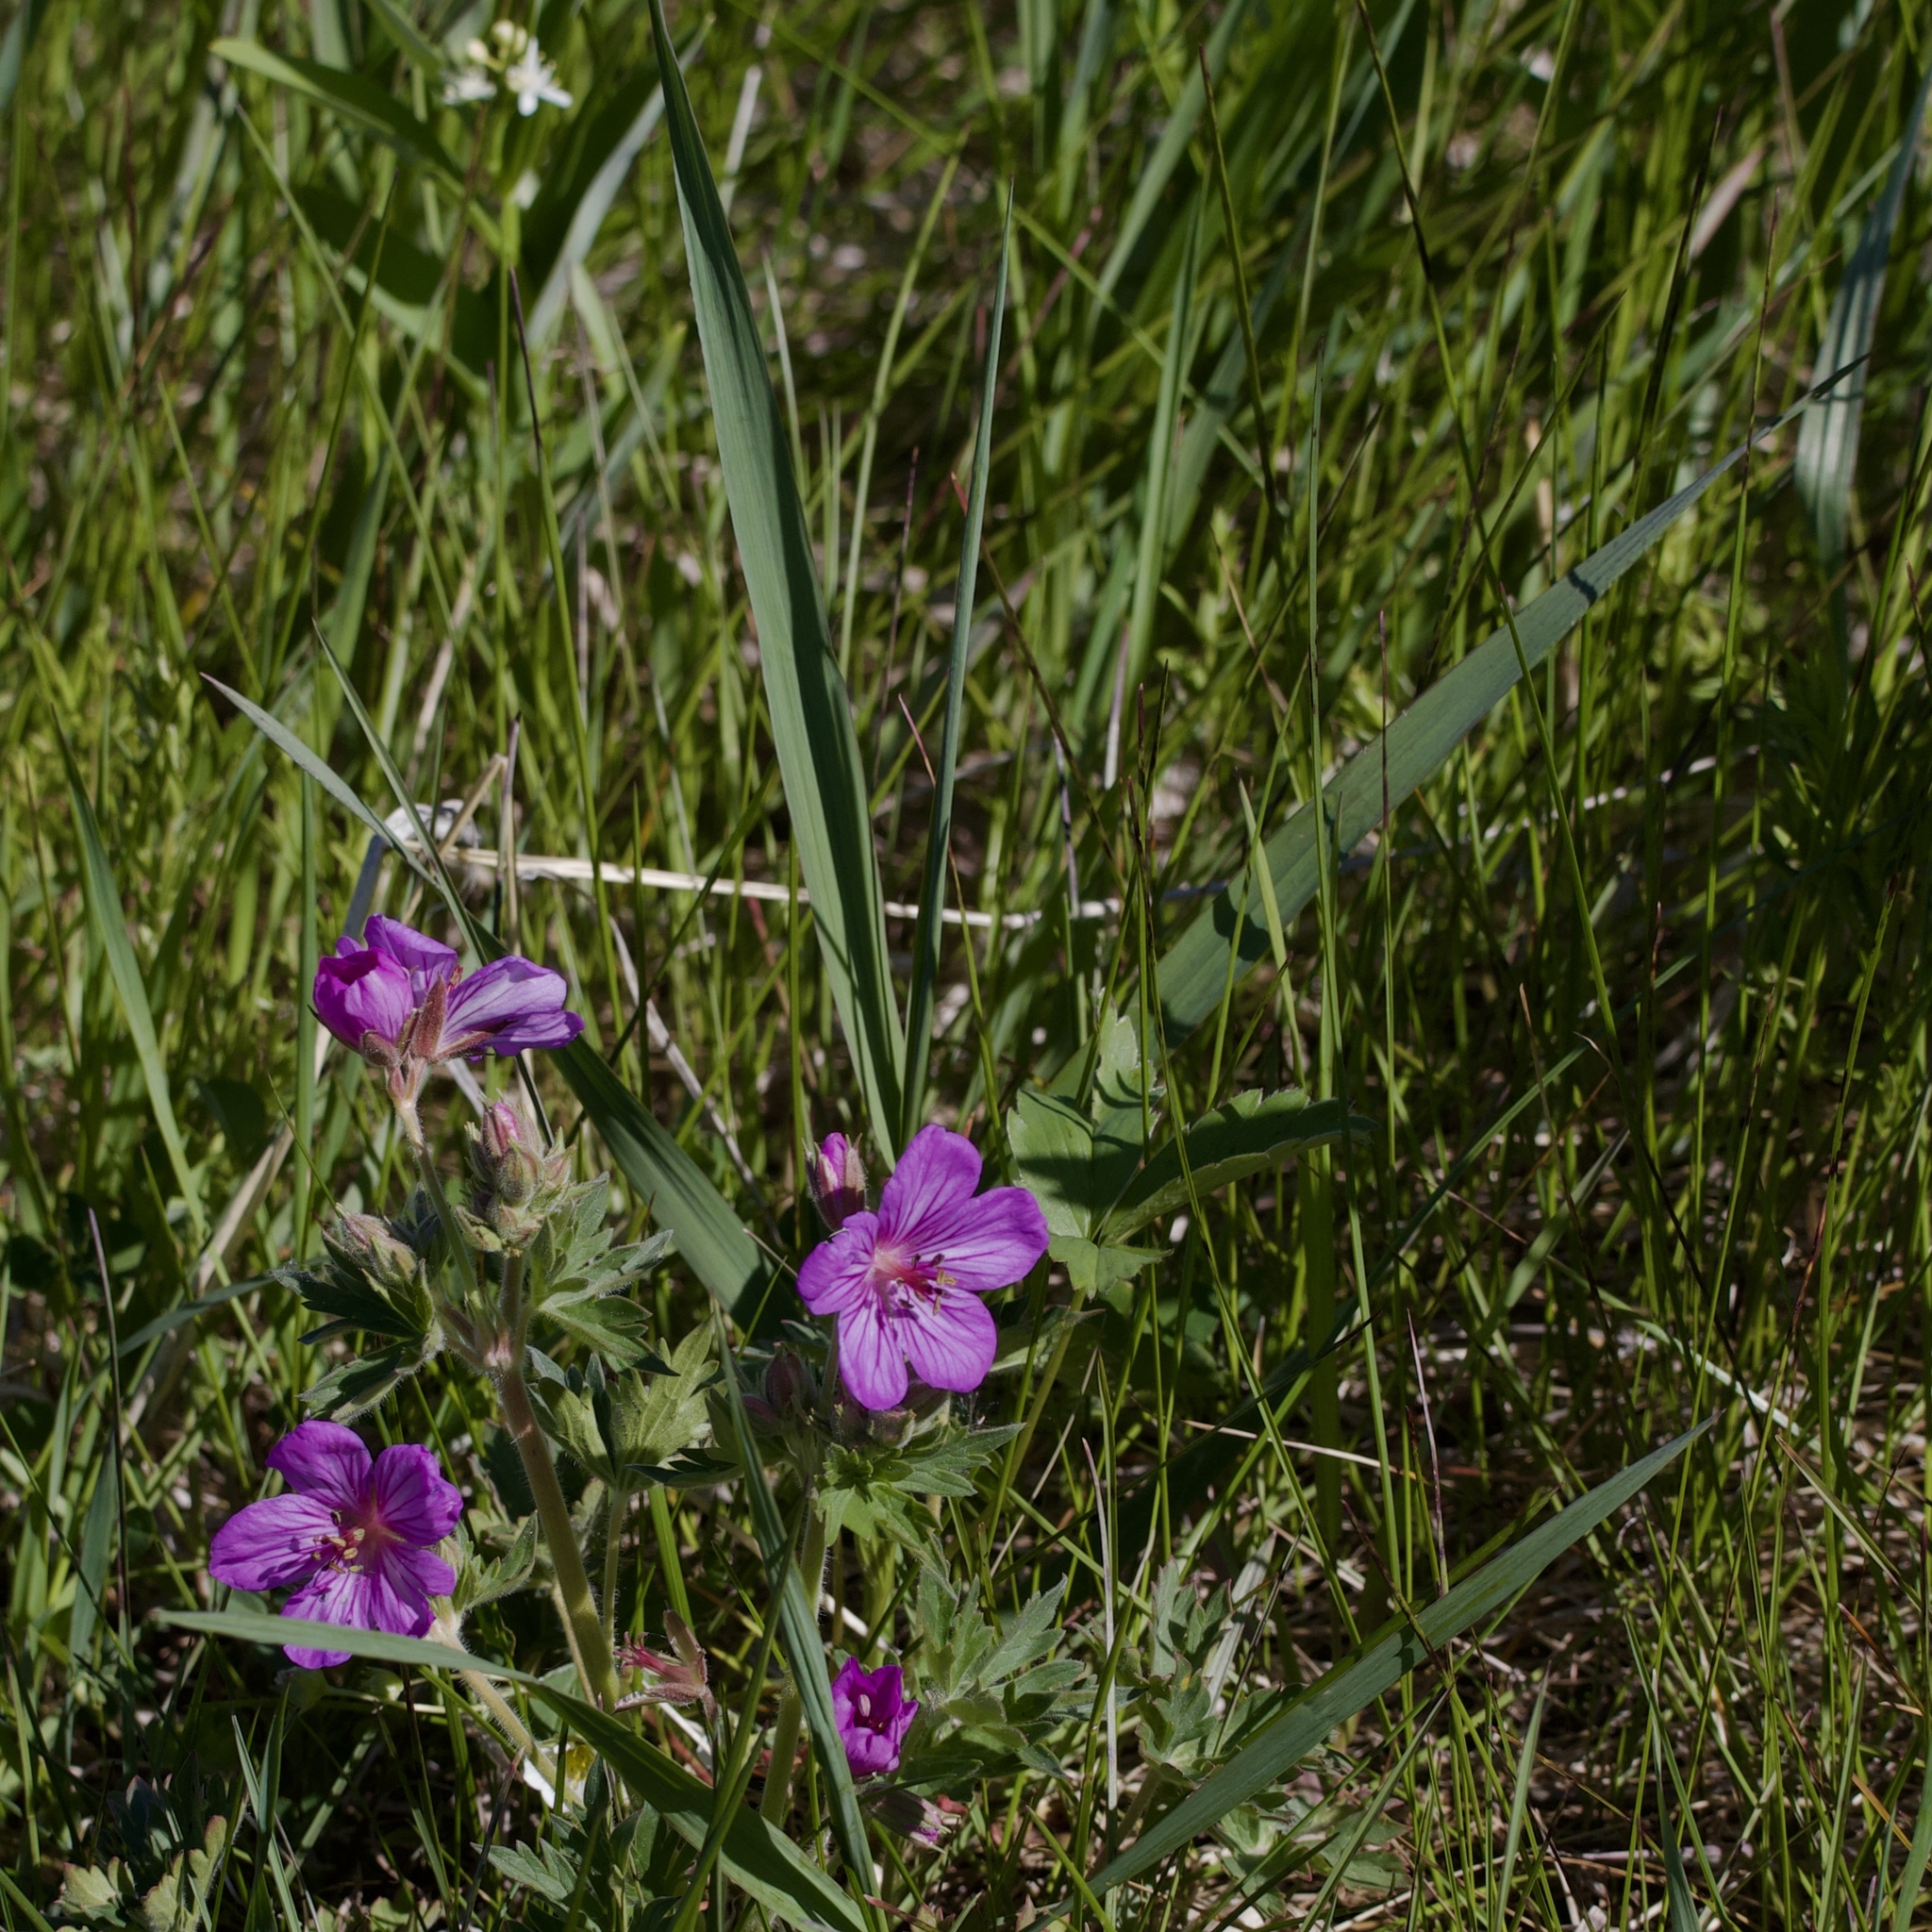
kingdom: Plantae
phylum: Tracheophyta
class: Magnoliopsida
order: Geraniales
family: Geraniaceae
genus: Geranium
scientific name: Geranium viscosissimum
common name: Purple geranium
